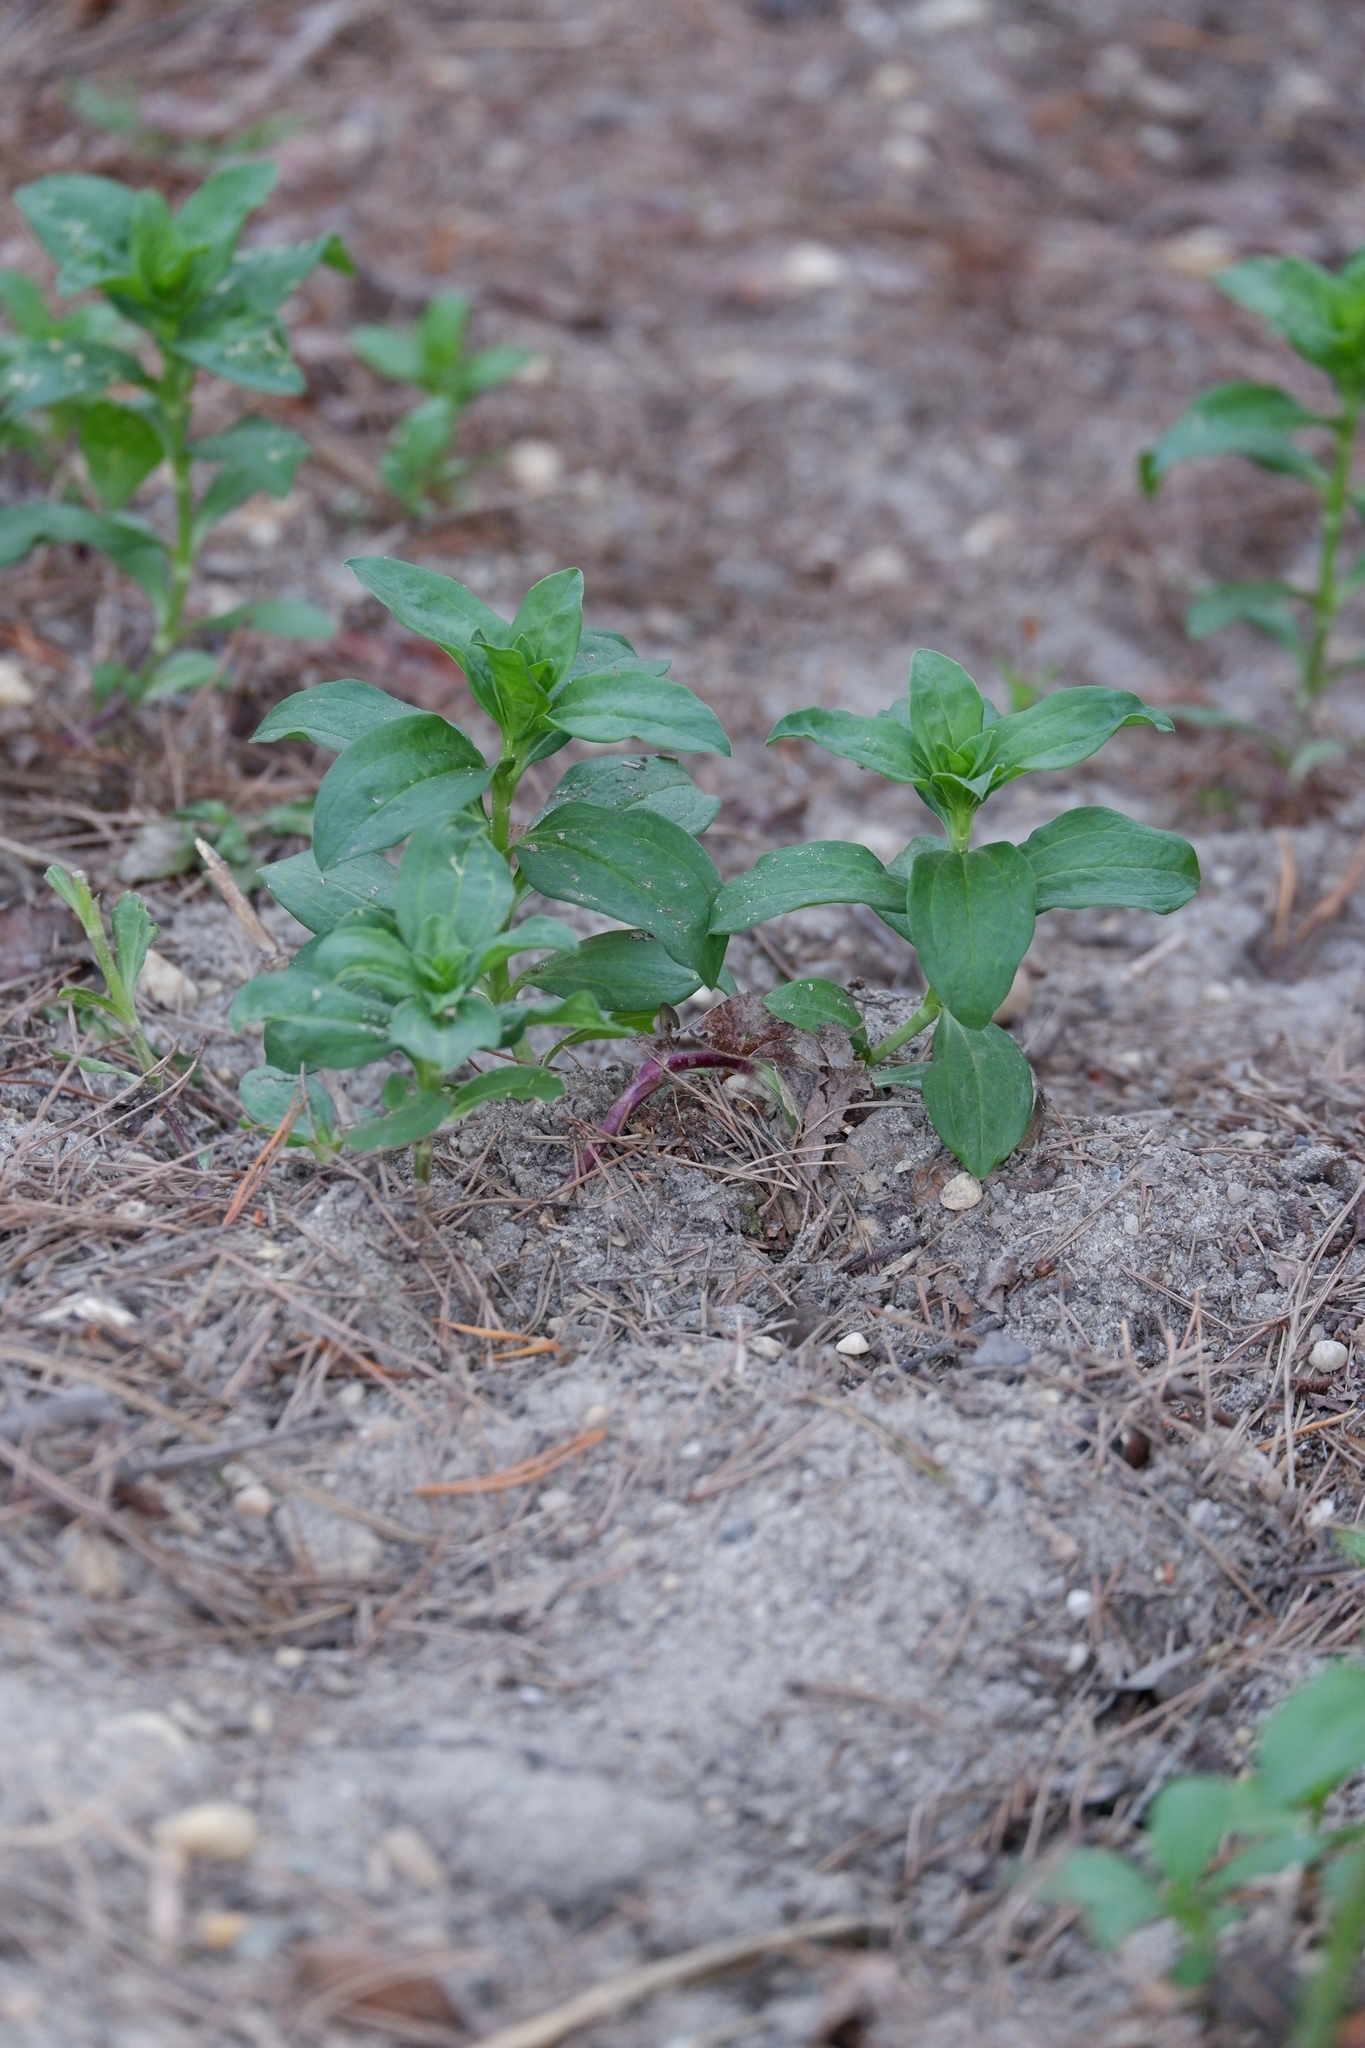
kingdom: Plantae
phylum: Tracheophyta
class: Magnoliopsida
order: Caryophyllales
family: Caryophyllaceae
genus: Saponaria
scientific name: Saponaria officinalis
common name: Soapwort
